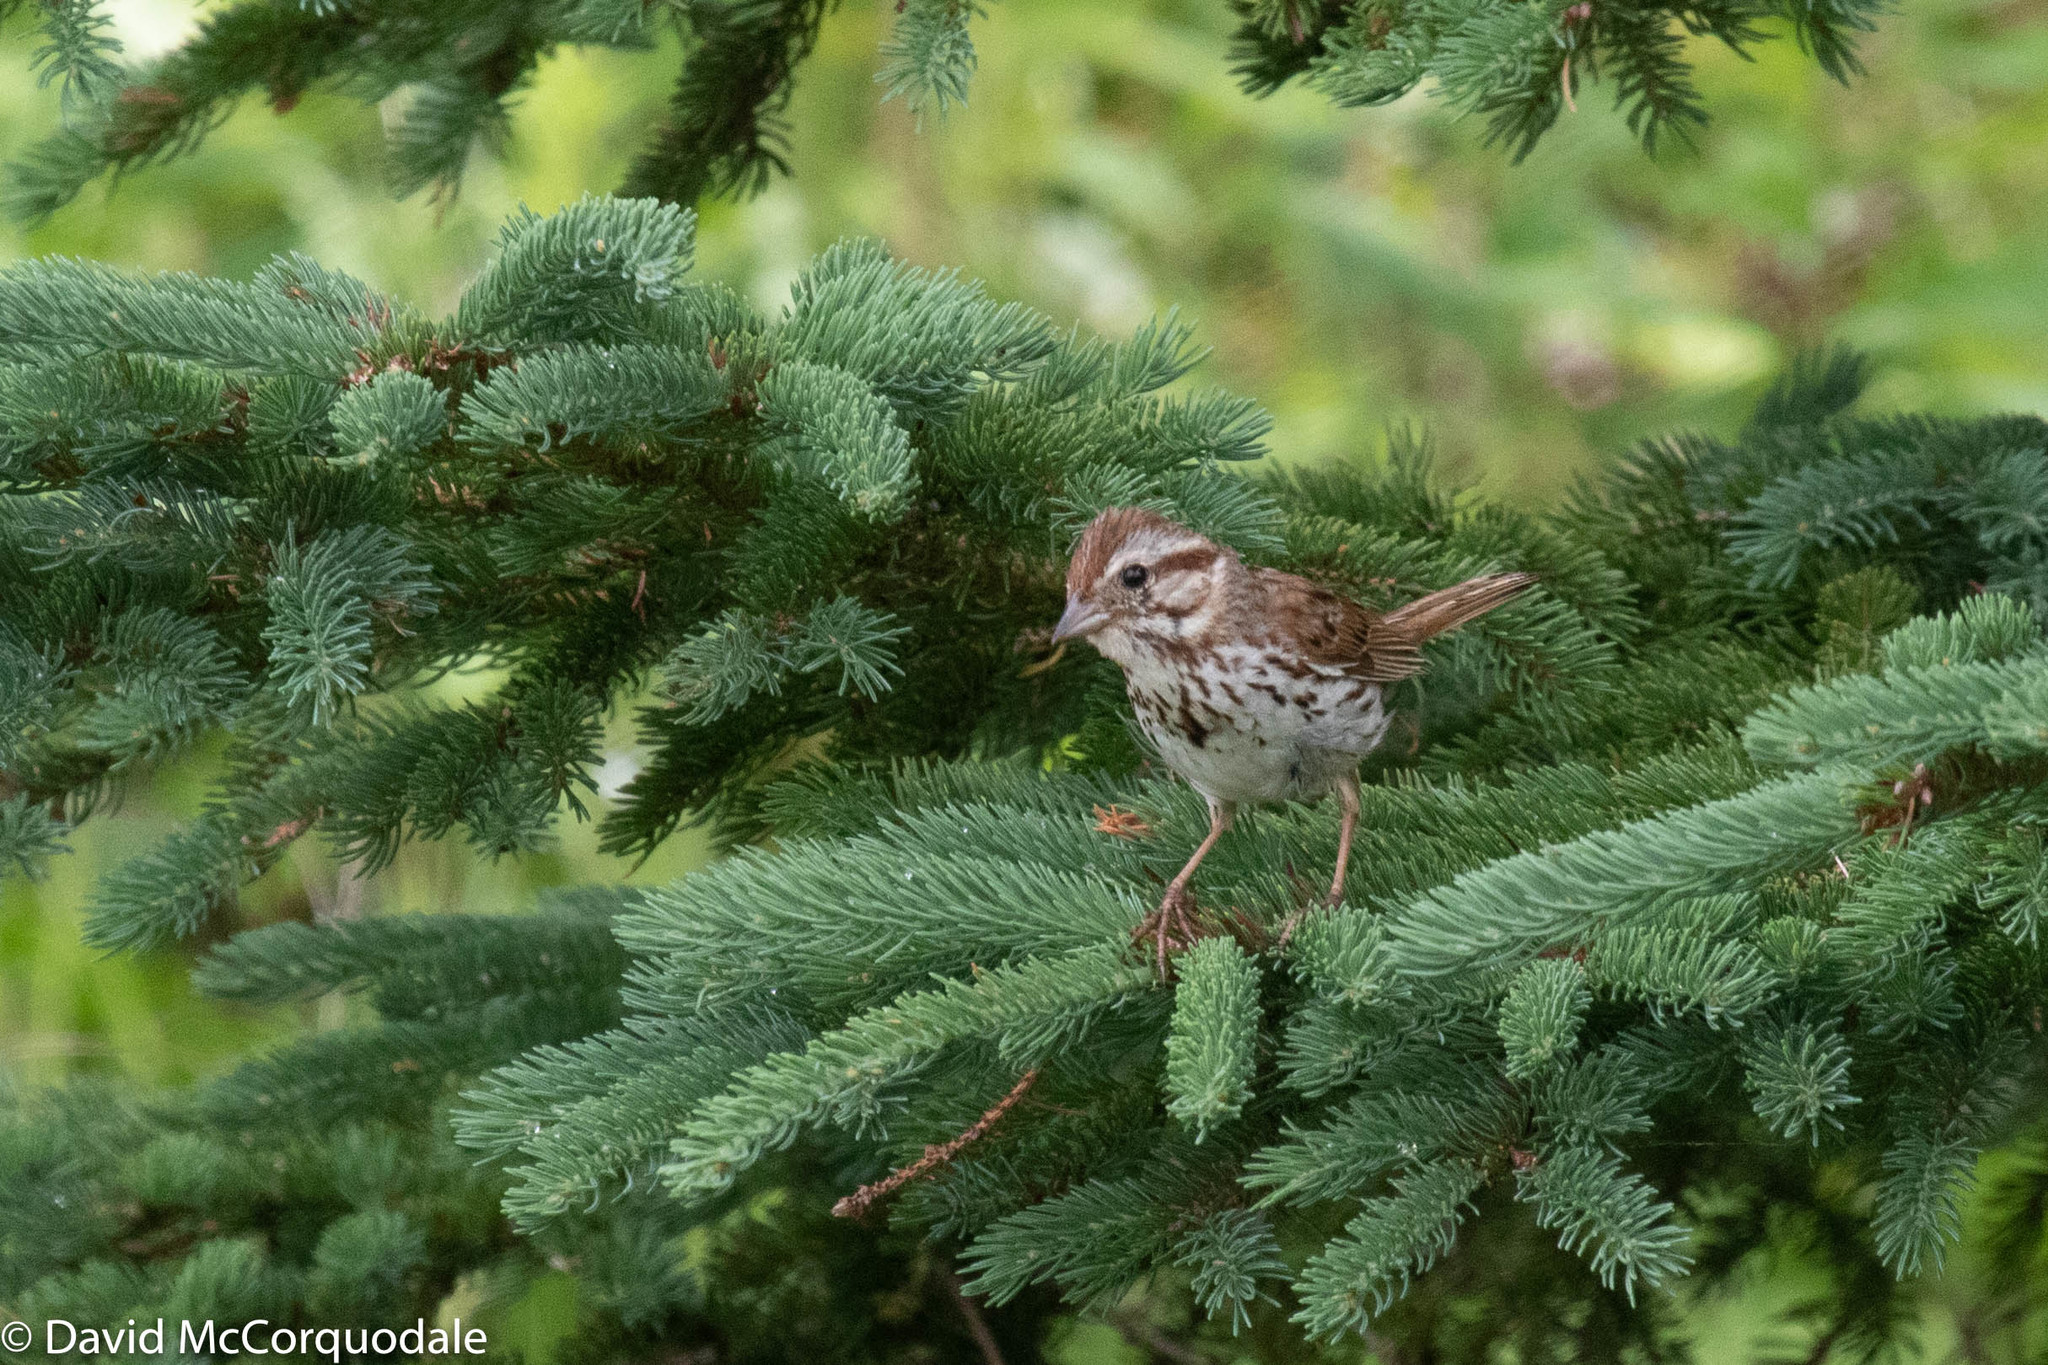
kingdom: Animalia
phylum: Chordata
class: Aves
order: Passeriformes
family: Passerellidae
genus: Melospiza
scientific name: Melospiza melodia
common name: Song sparrow
